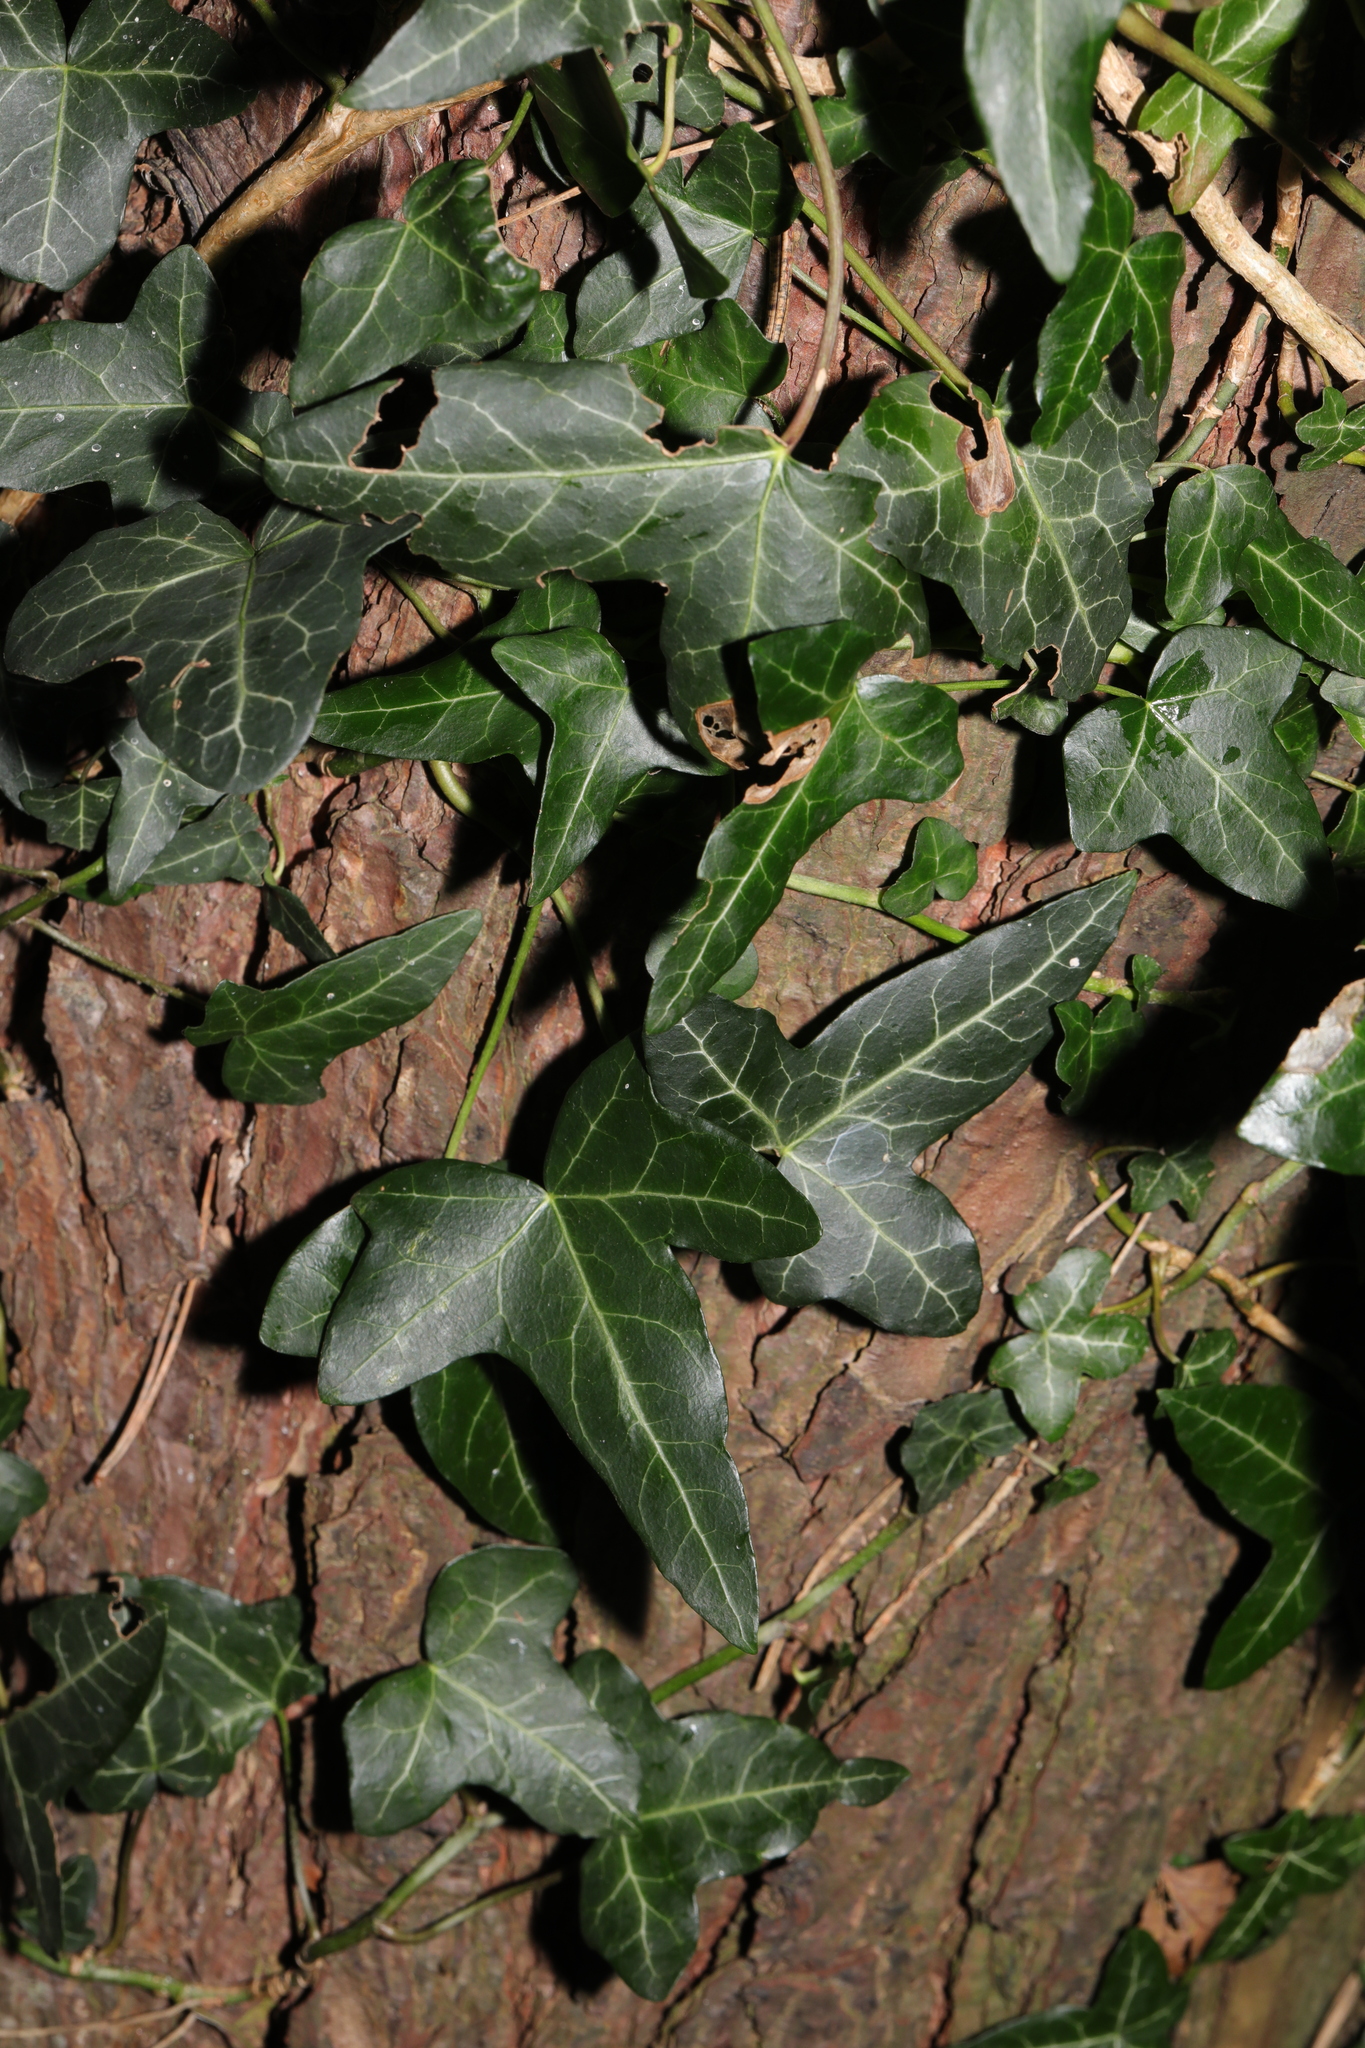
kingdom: Plantae
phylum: Tracheophyta
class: Magnoliopsida
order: Apiales
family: Araliaceae
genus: Hedera
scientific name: Hedera helix
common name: Ivy
